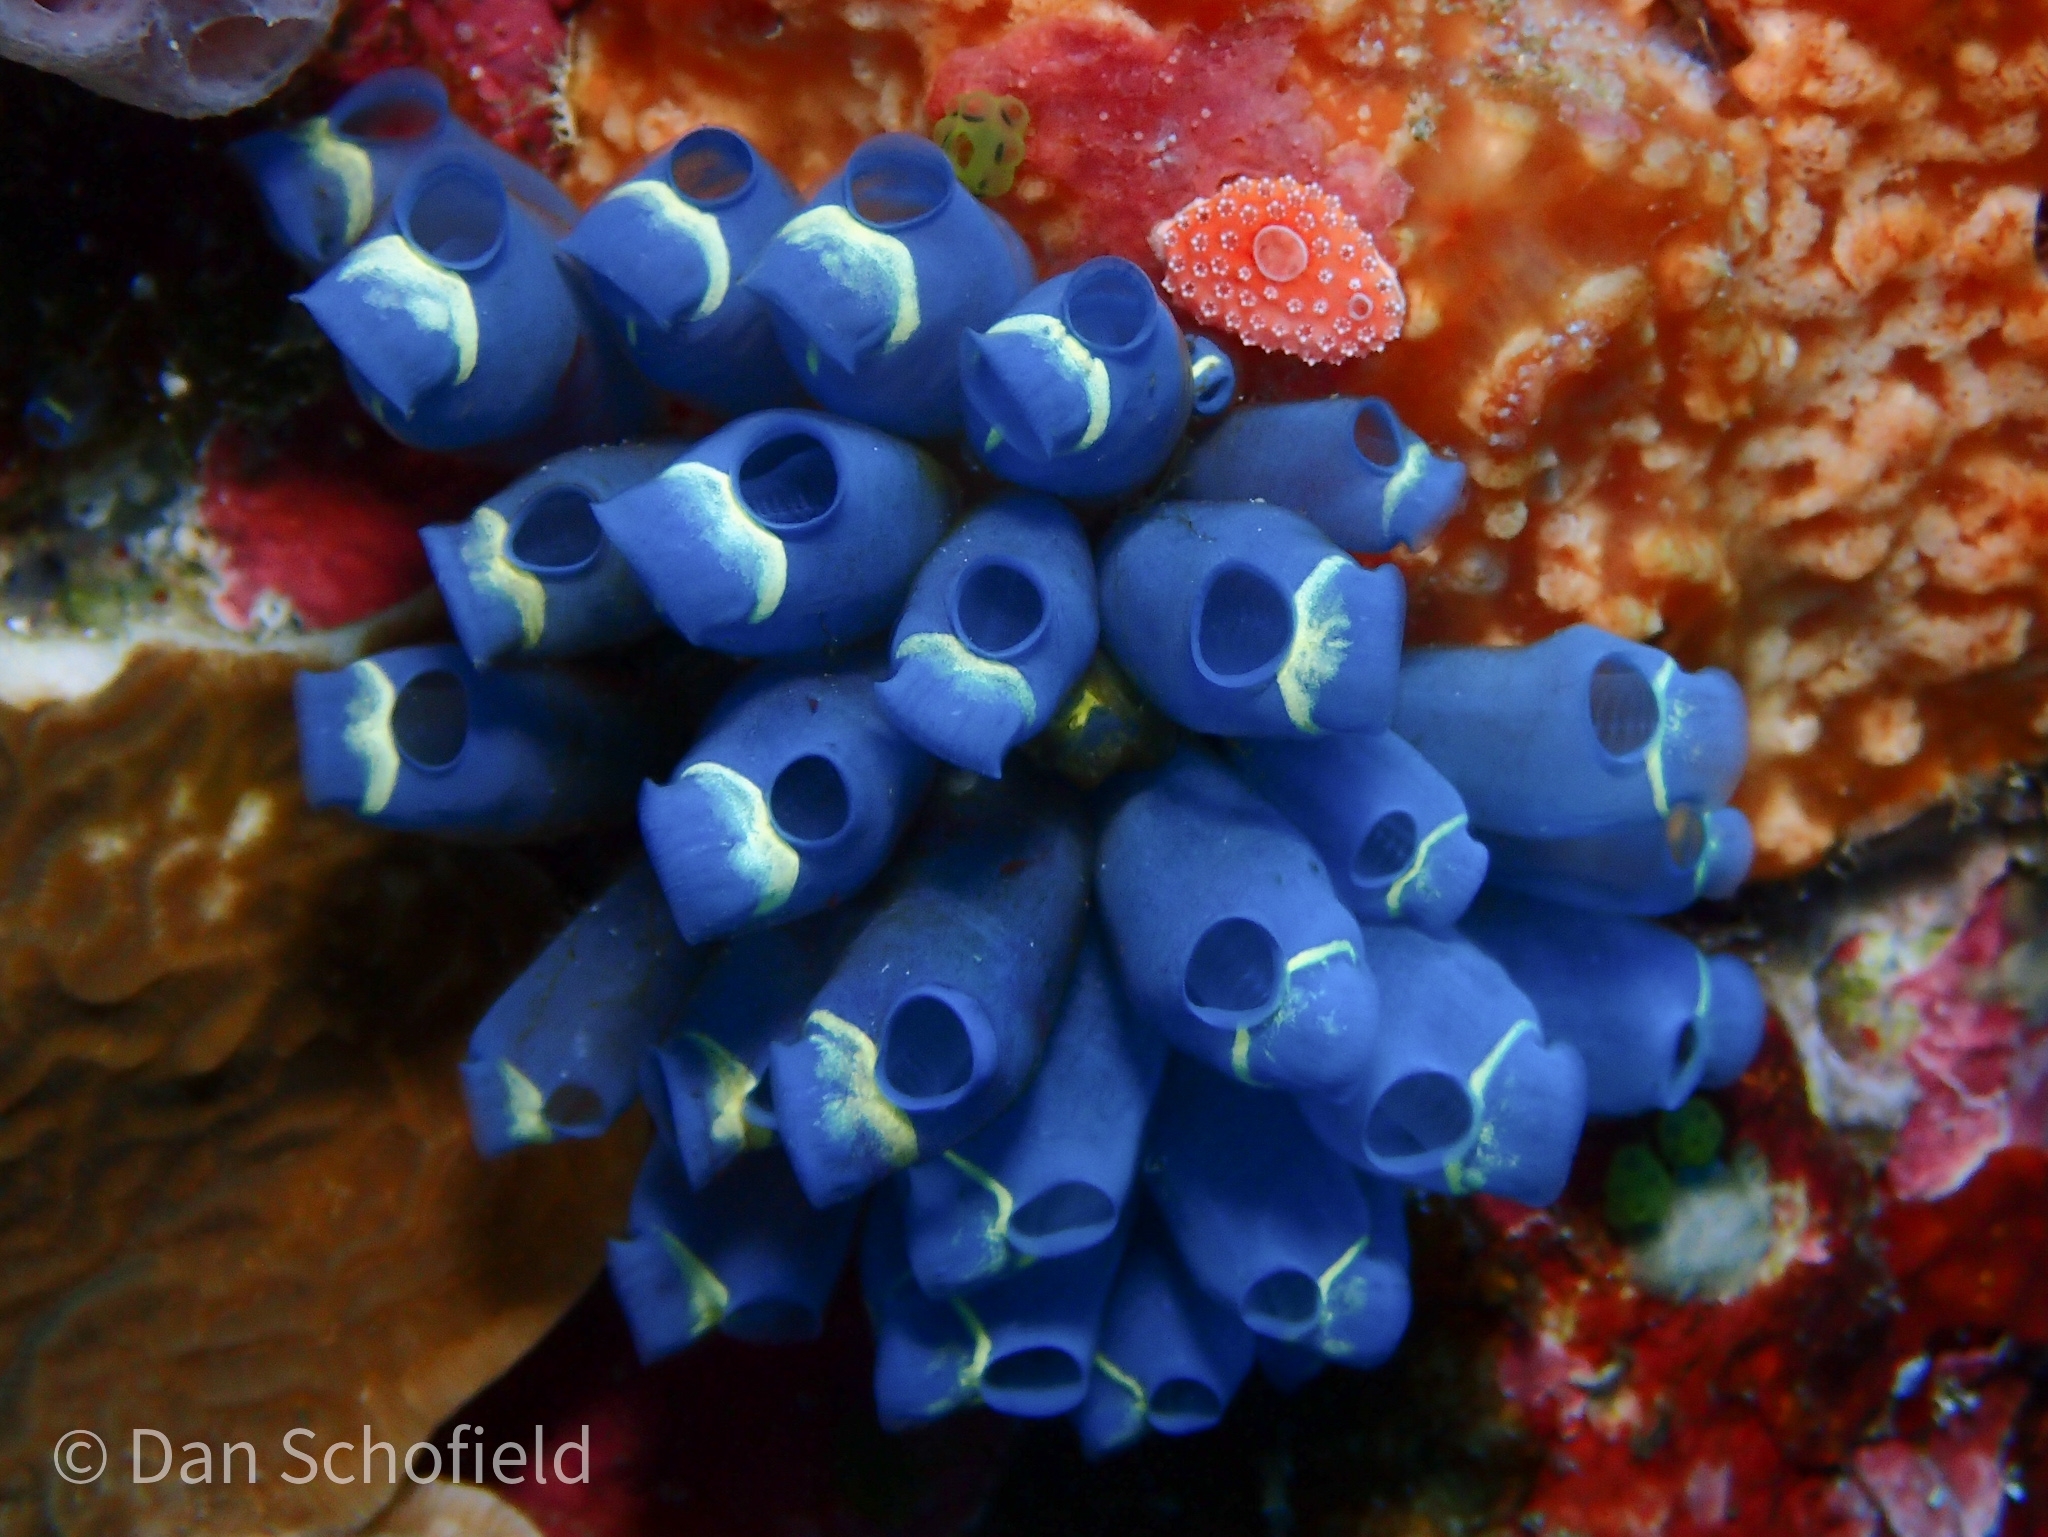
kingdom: Animalia
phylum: Chordata
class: Ascidiacea
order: Aplousobranchia
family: Clavelinidae
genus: Clavelina
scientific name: Clavelina cyclus
